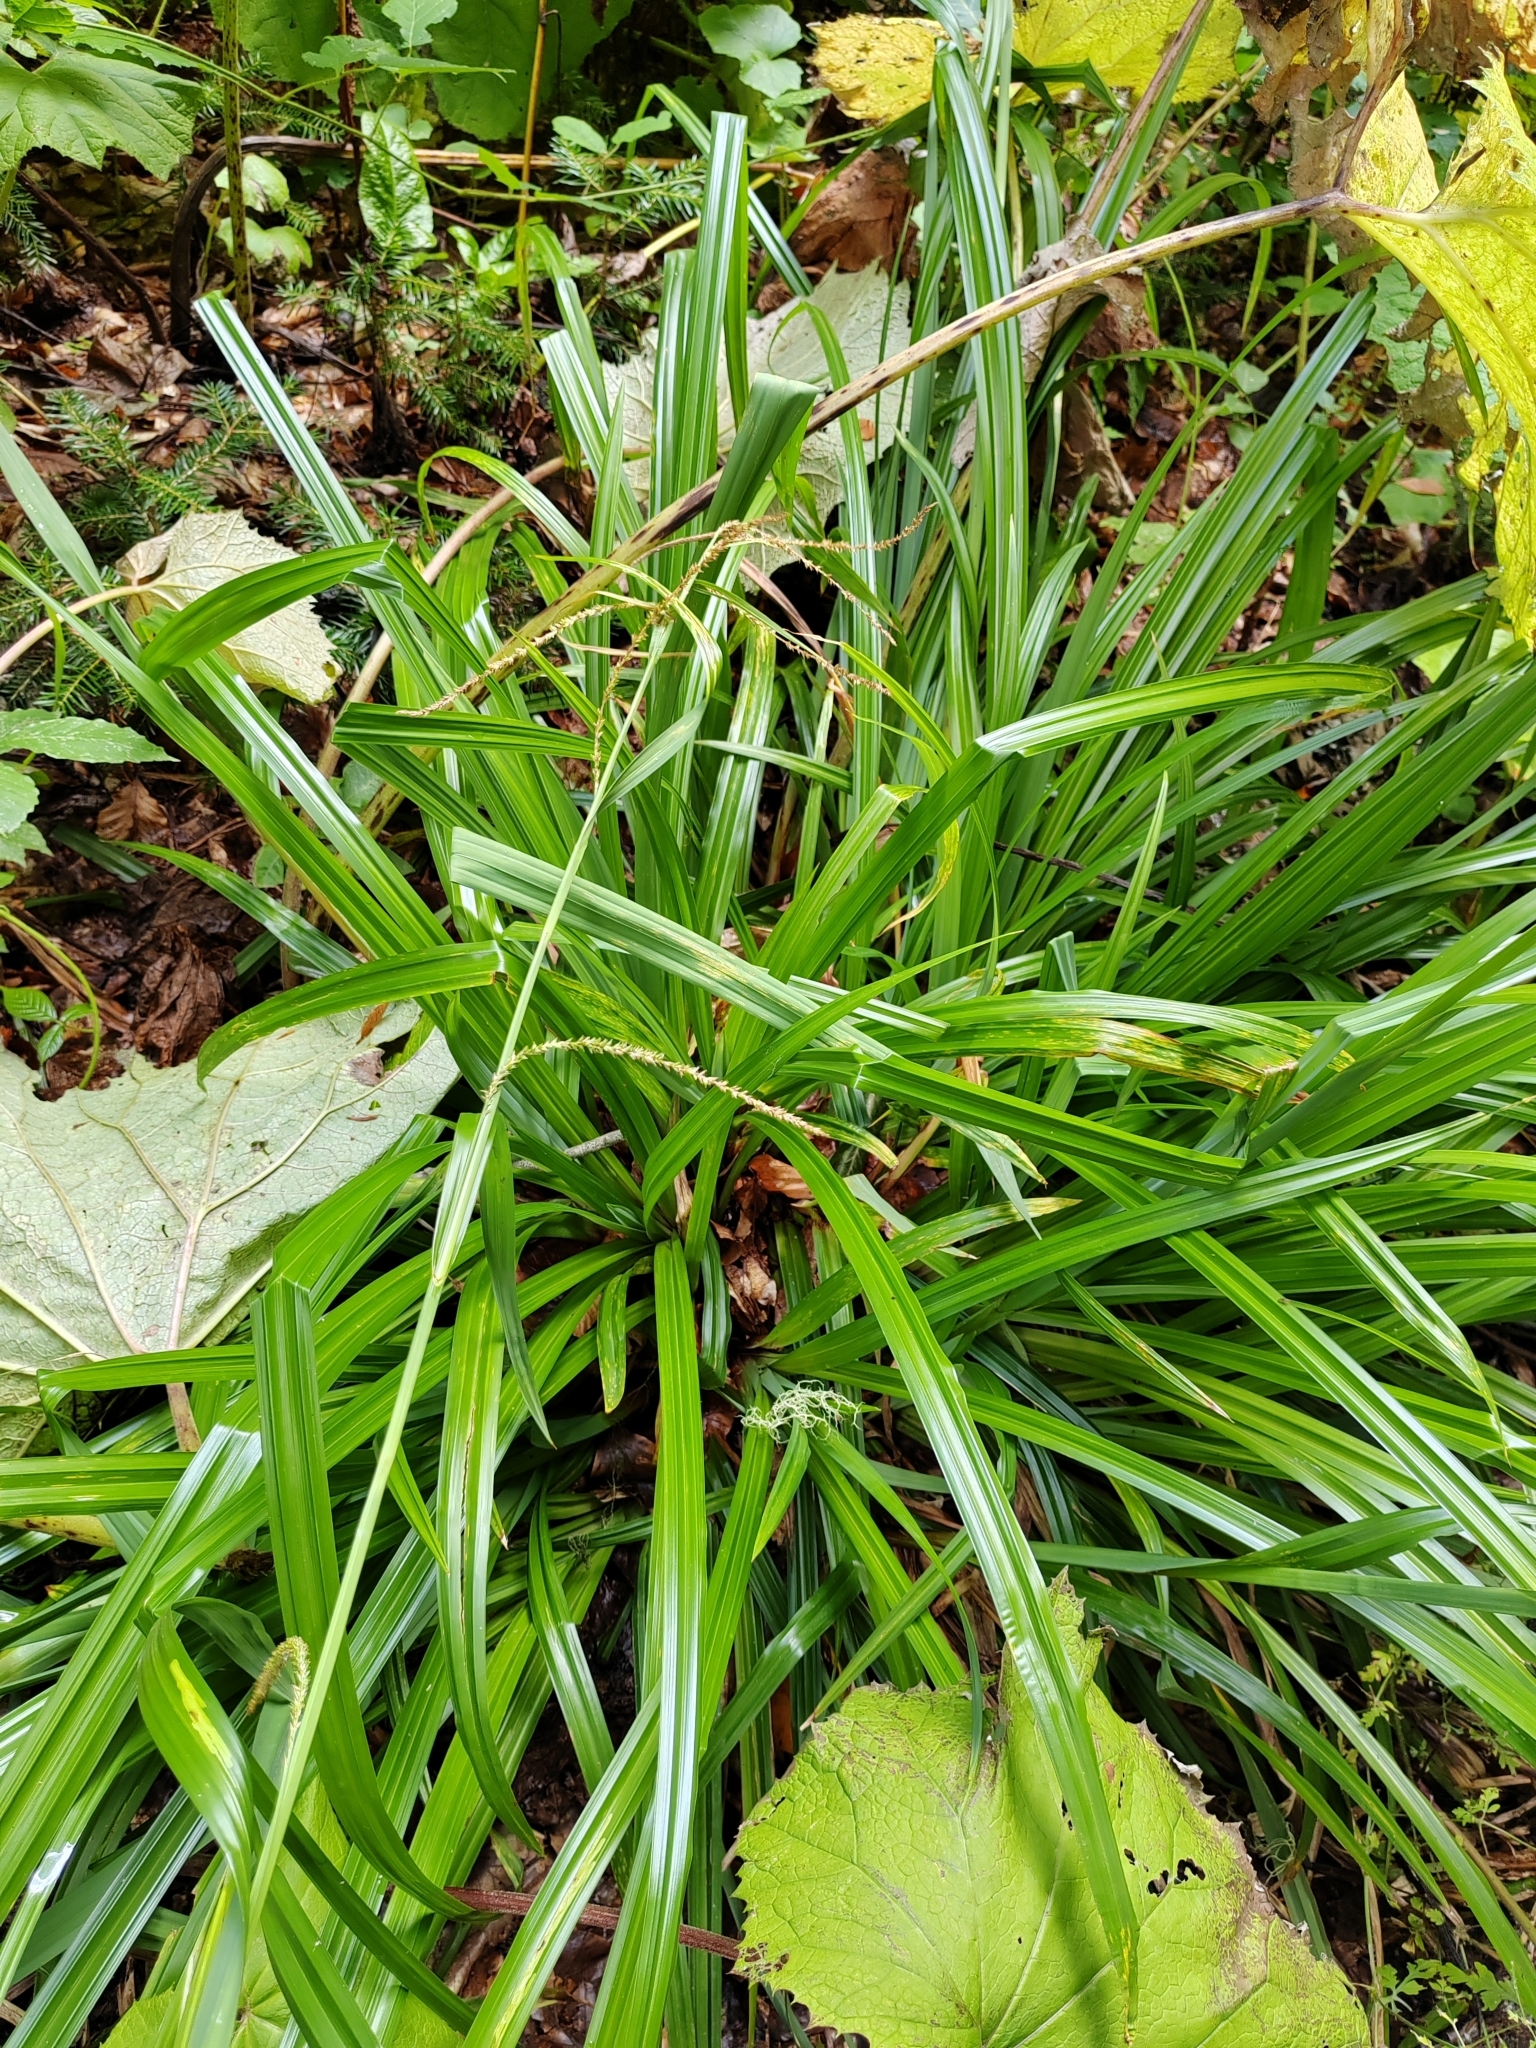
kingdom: Plantae
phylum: Tracheophyta
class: Liliopsida
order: Poales
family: Cyperaceae
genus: Carex
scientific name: Carex pendula
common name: Pendulous sedge
